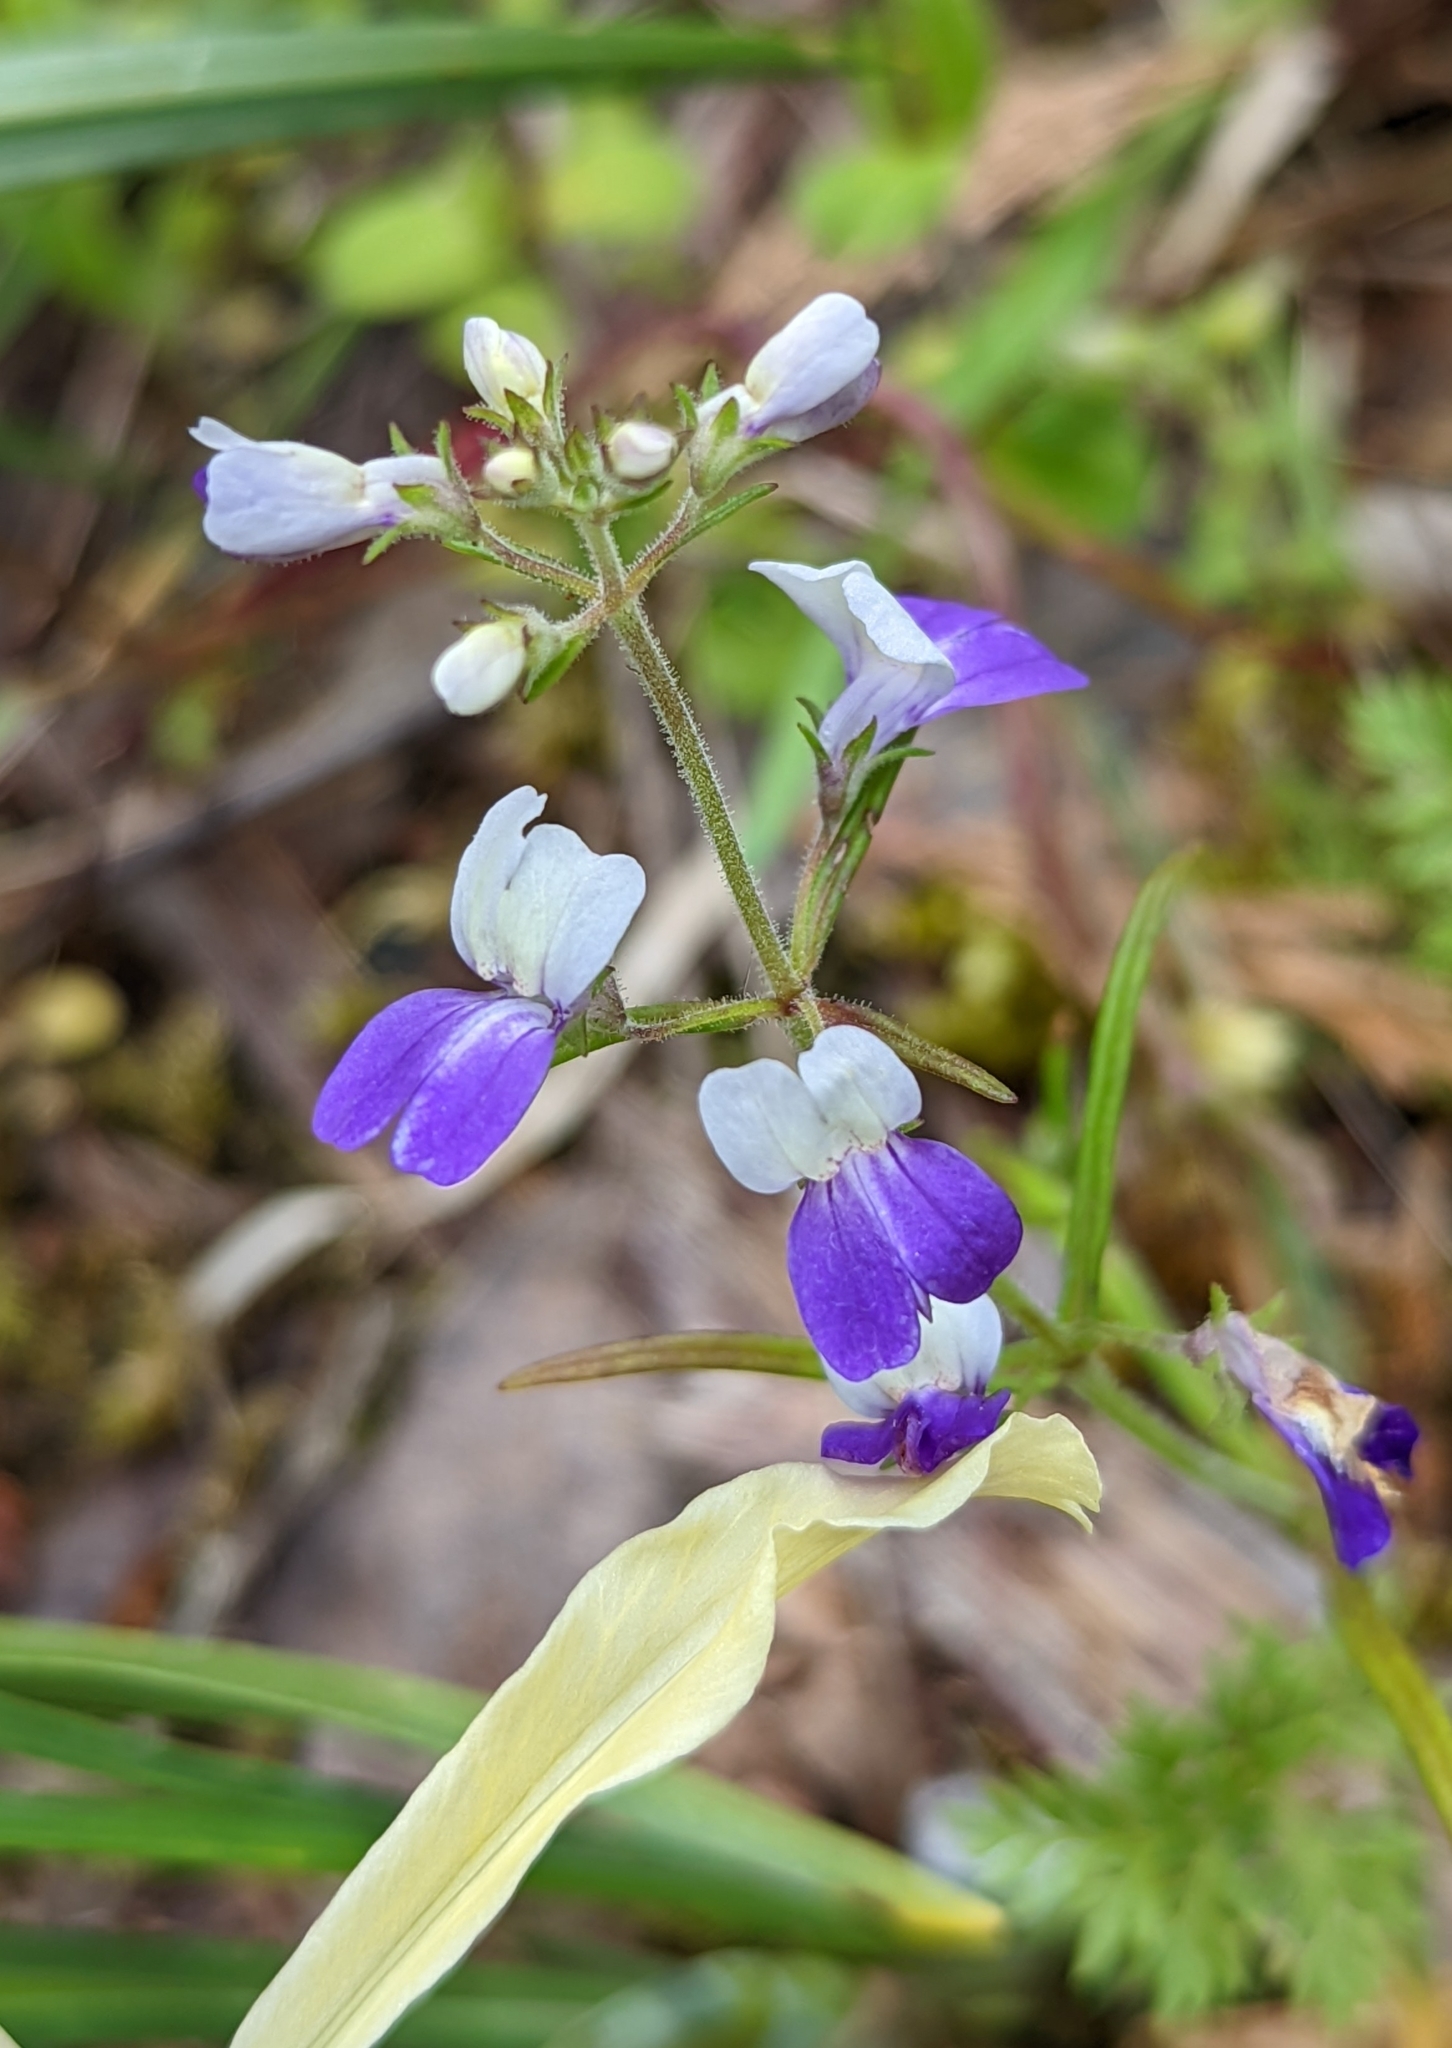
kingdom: Plantae
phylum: Tracheophyta
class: Magnoliopsida
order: Lamiales
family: Plantaginaceae
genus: Collinsia
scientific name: Collinsia linearis
